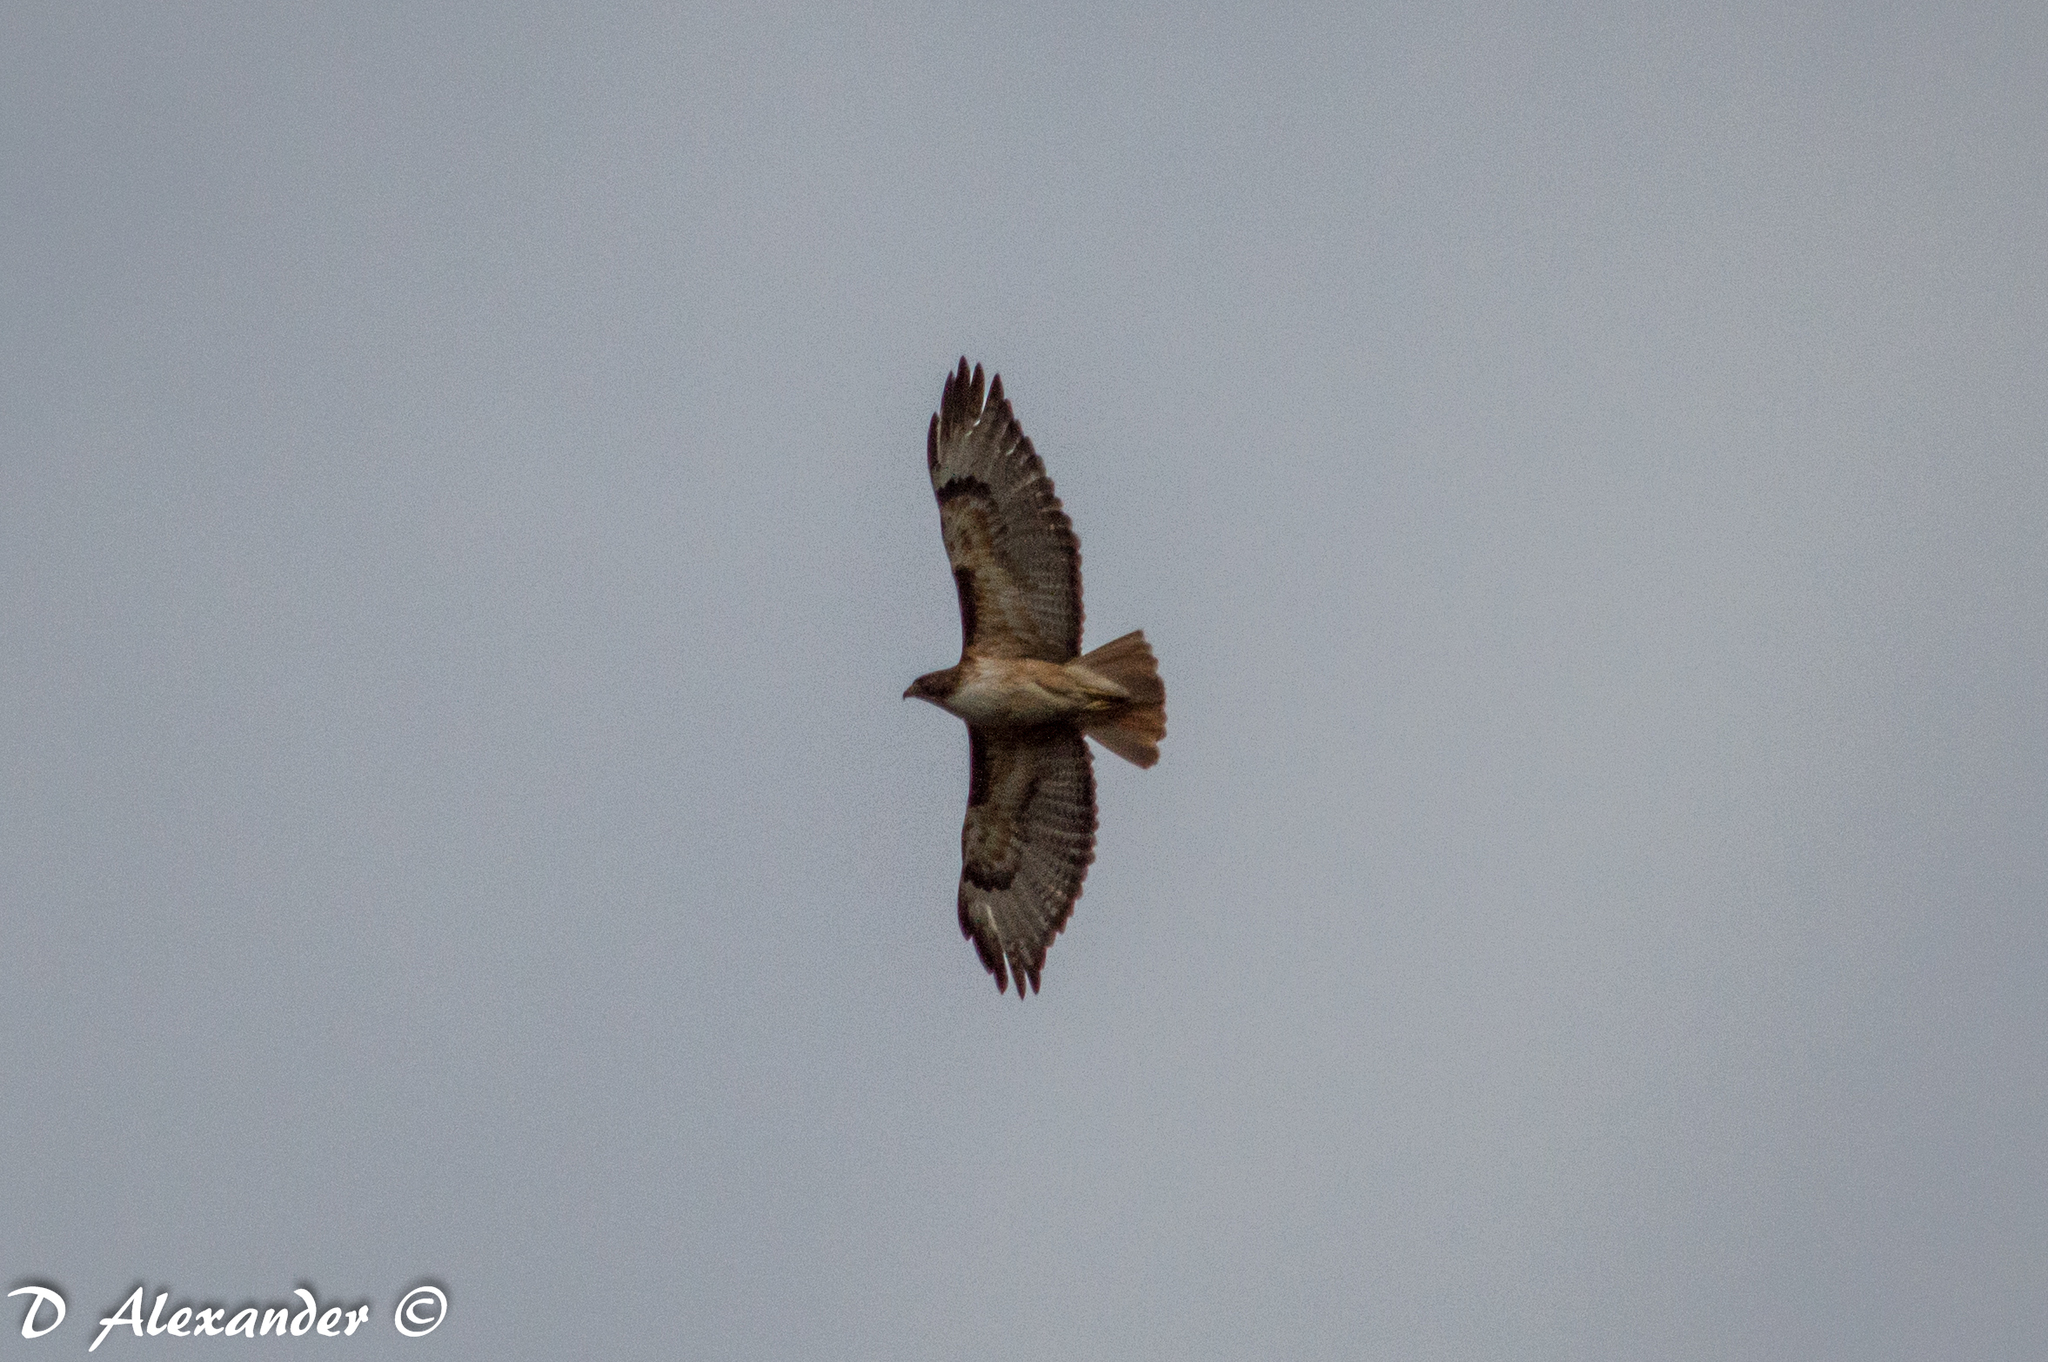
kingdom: Animalia
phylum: Chordata
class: Aves
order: Accipitriformes
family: Accipitridae
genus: Buteo
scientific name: Buteo jamaicensis
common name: Red-tailed hawk
